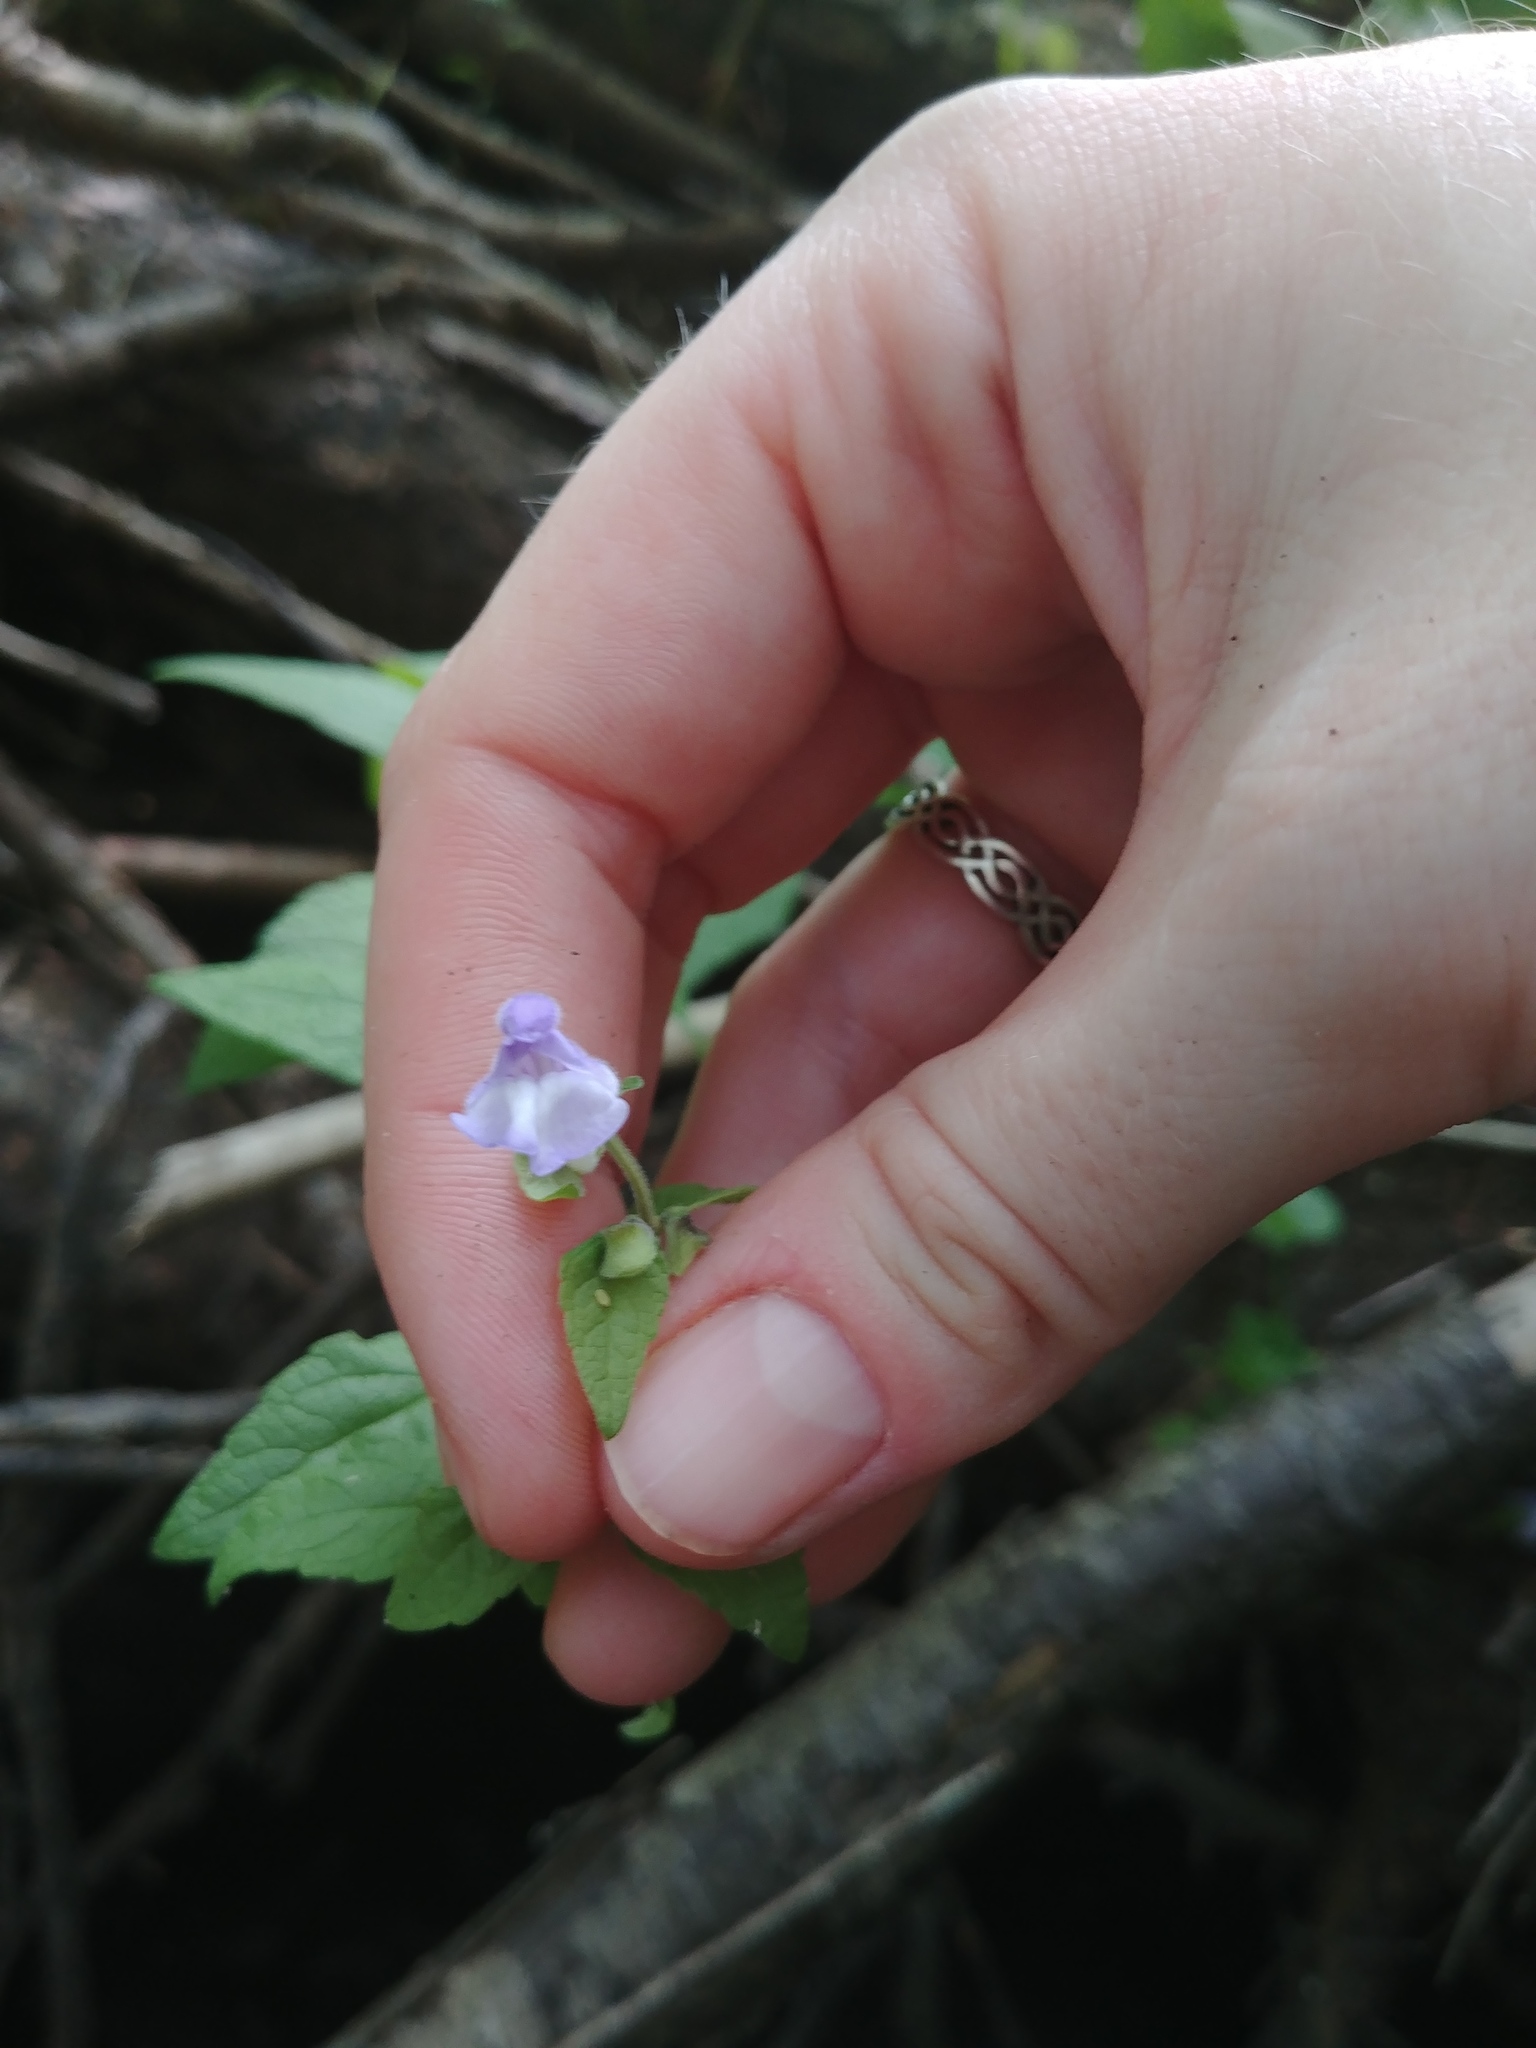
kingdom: Plantae
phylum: Tracheophyta
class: Magnoliopsida
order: Lamiales
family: Lamiaceae
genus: Scutellaria
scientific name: Scutellaria galericulata
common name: Skullcap
